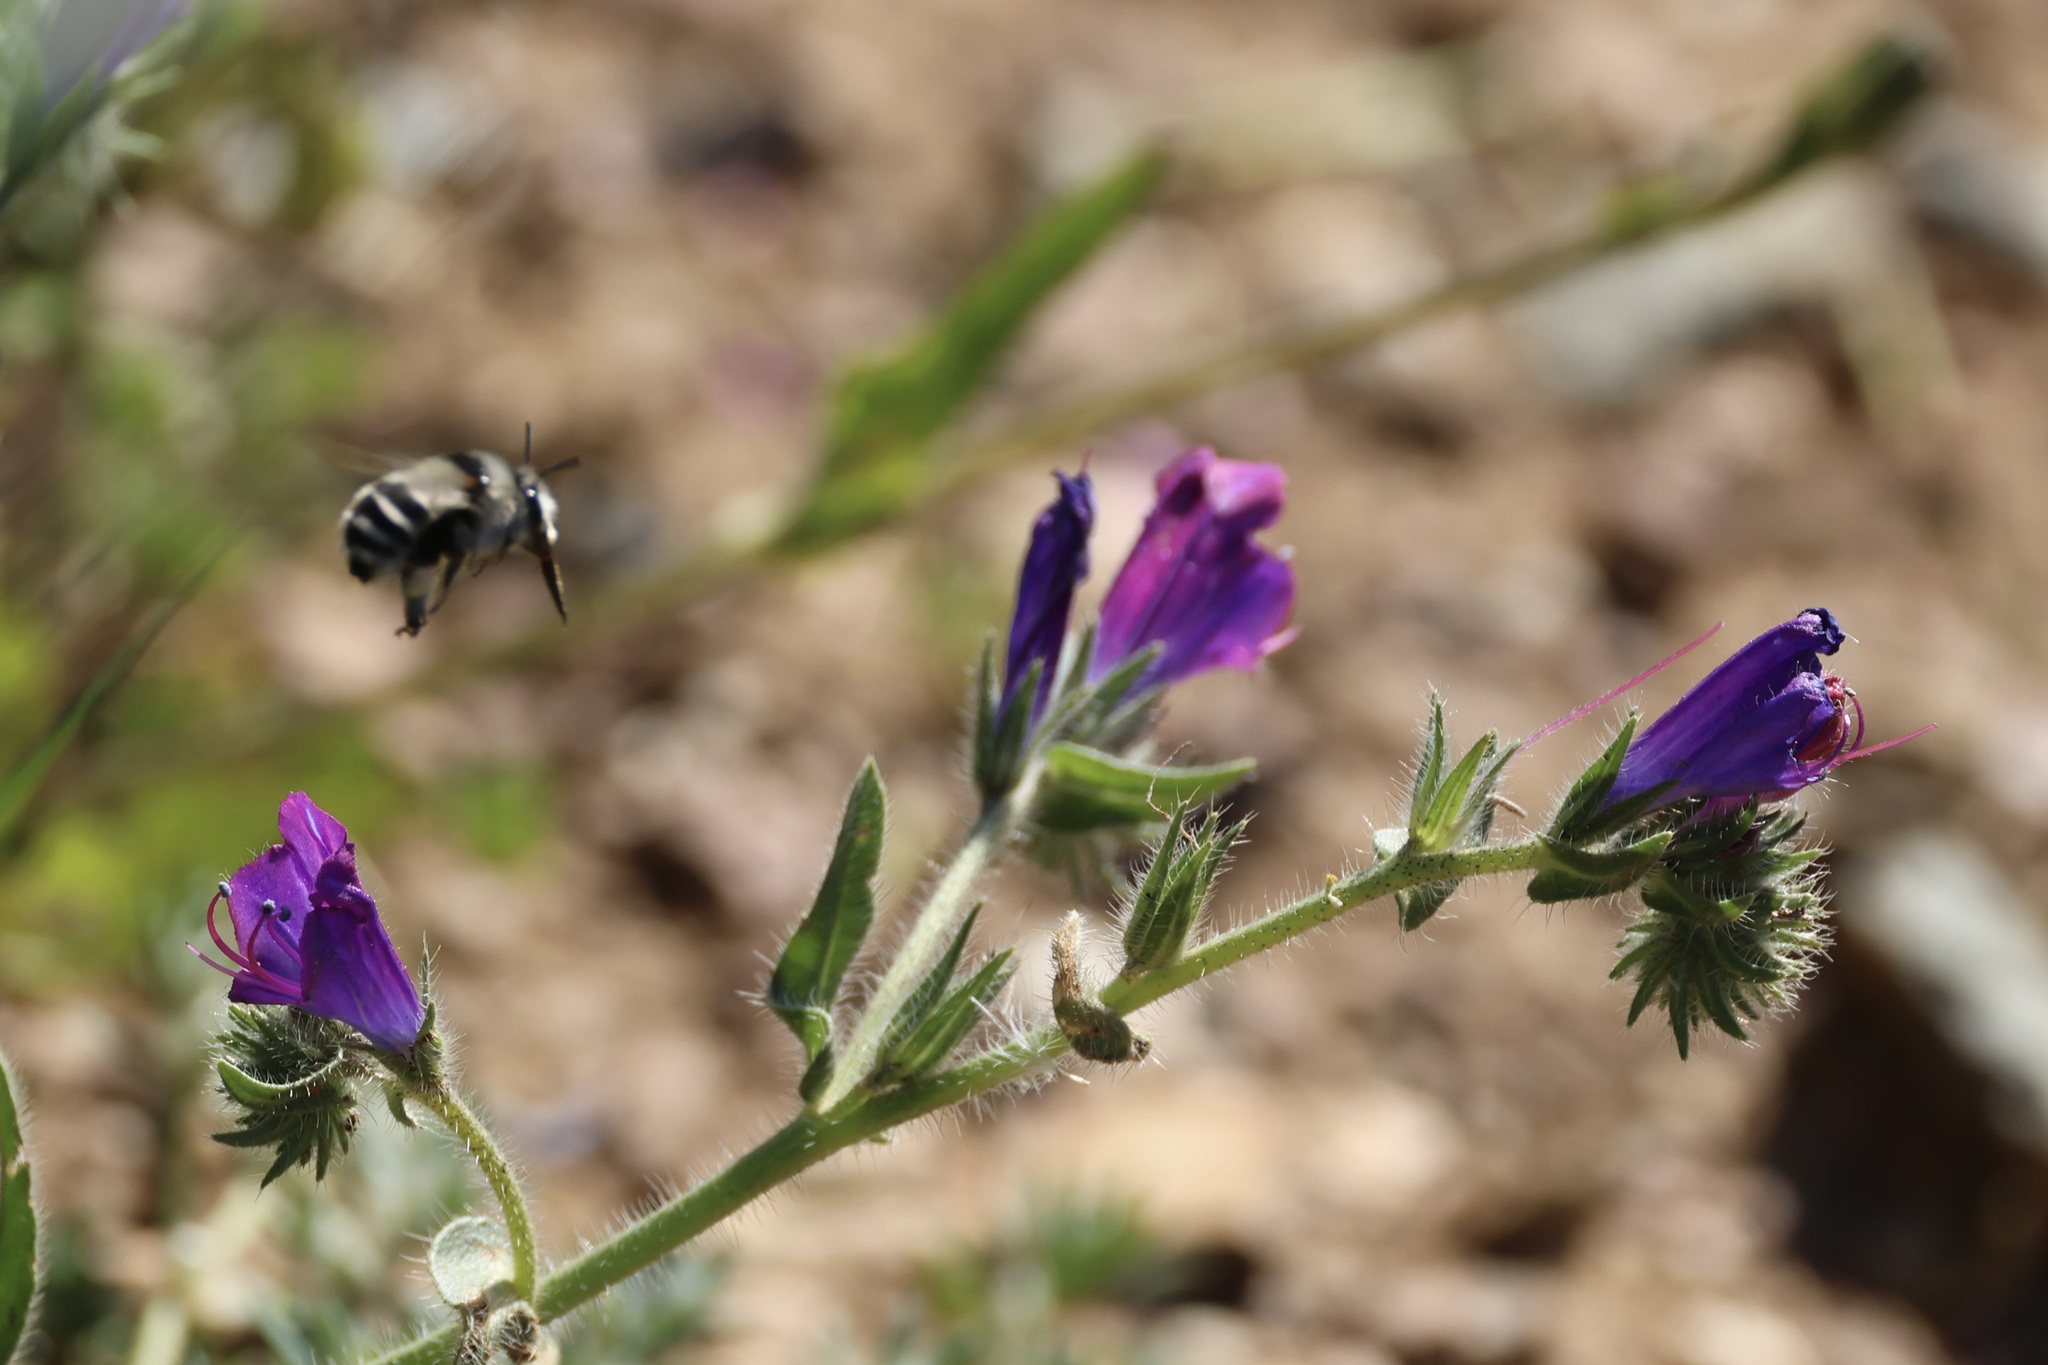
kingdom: Animalia
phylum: Arthropoda
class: Insecta
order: Hymenoptera
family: Apidae
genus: Anthophora
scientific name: Anthophora atroalba
